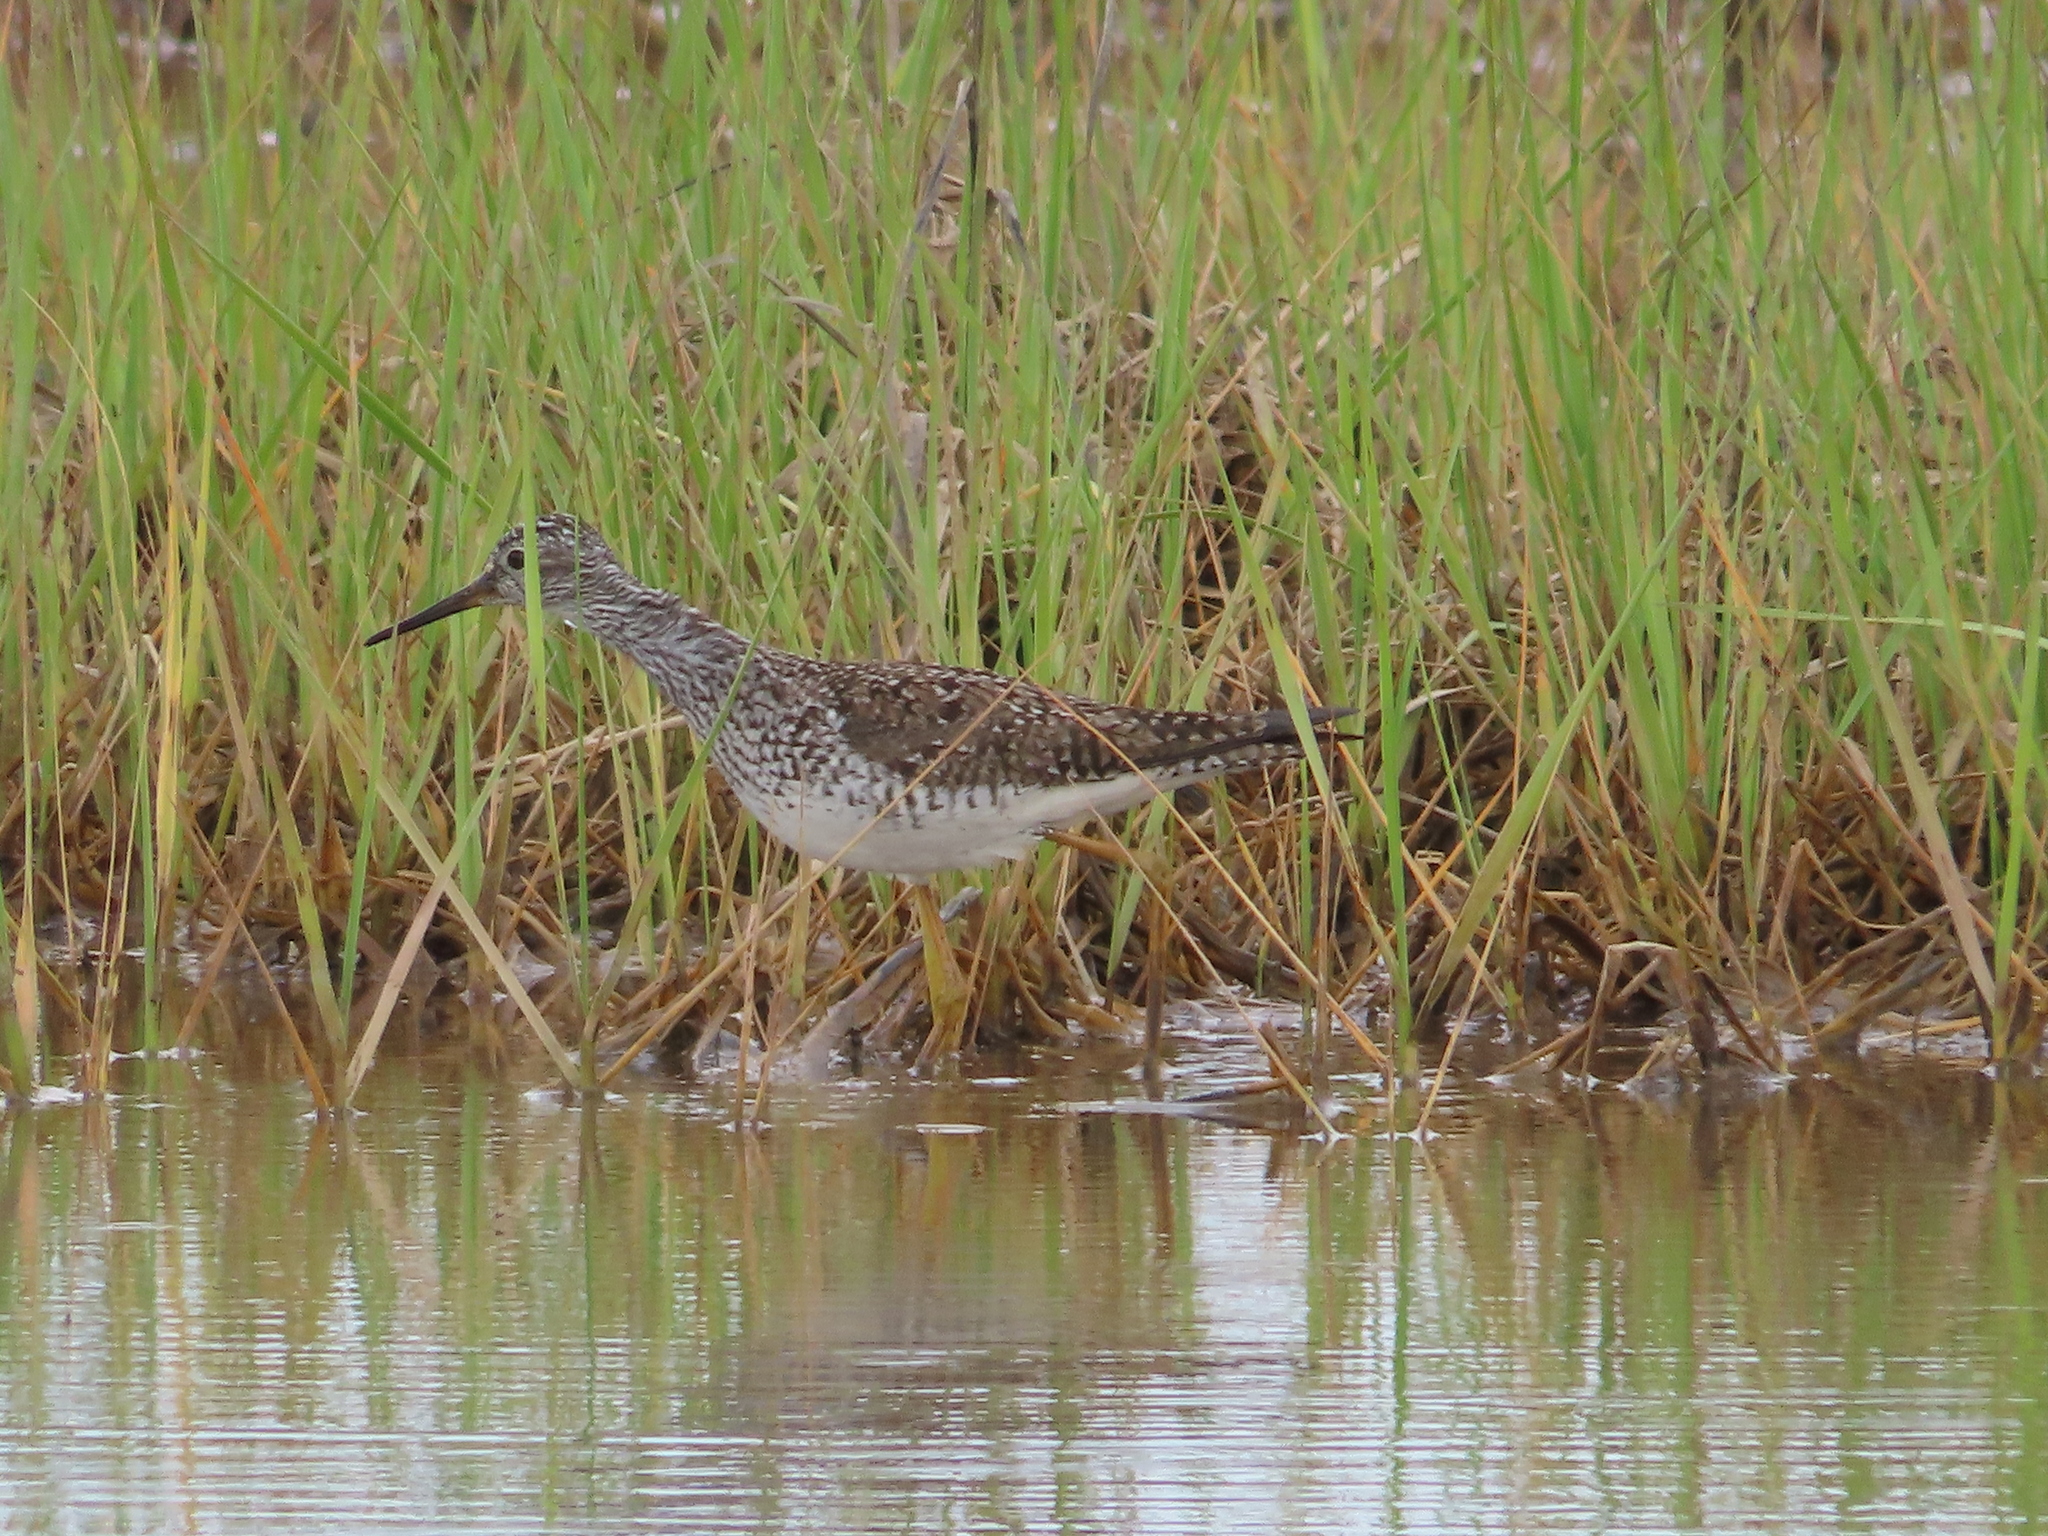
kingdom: Animalia
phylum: Chordata
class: Aves
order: Charadriiformes
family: Scolopacidae
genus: Tringa
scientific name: Tringa flavipes
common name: Lesser yellowlegs
